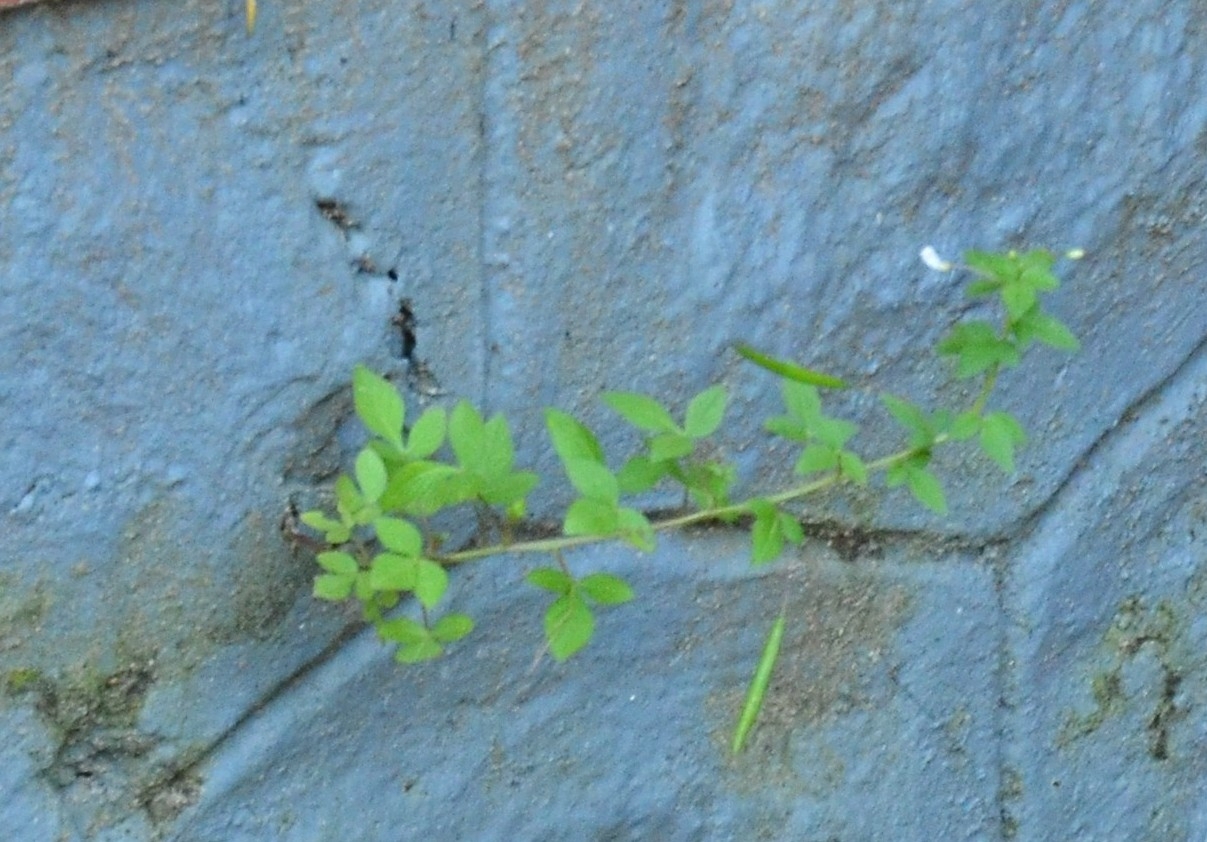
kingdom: Plantae
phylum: Tracheophyta
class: Magnoliopsida
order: Brassicales
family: Cleomaceae
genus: Sieruela
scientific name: Sieruela rutidosperma
